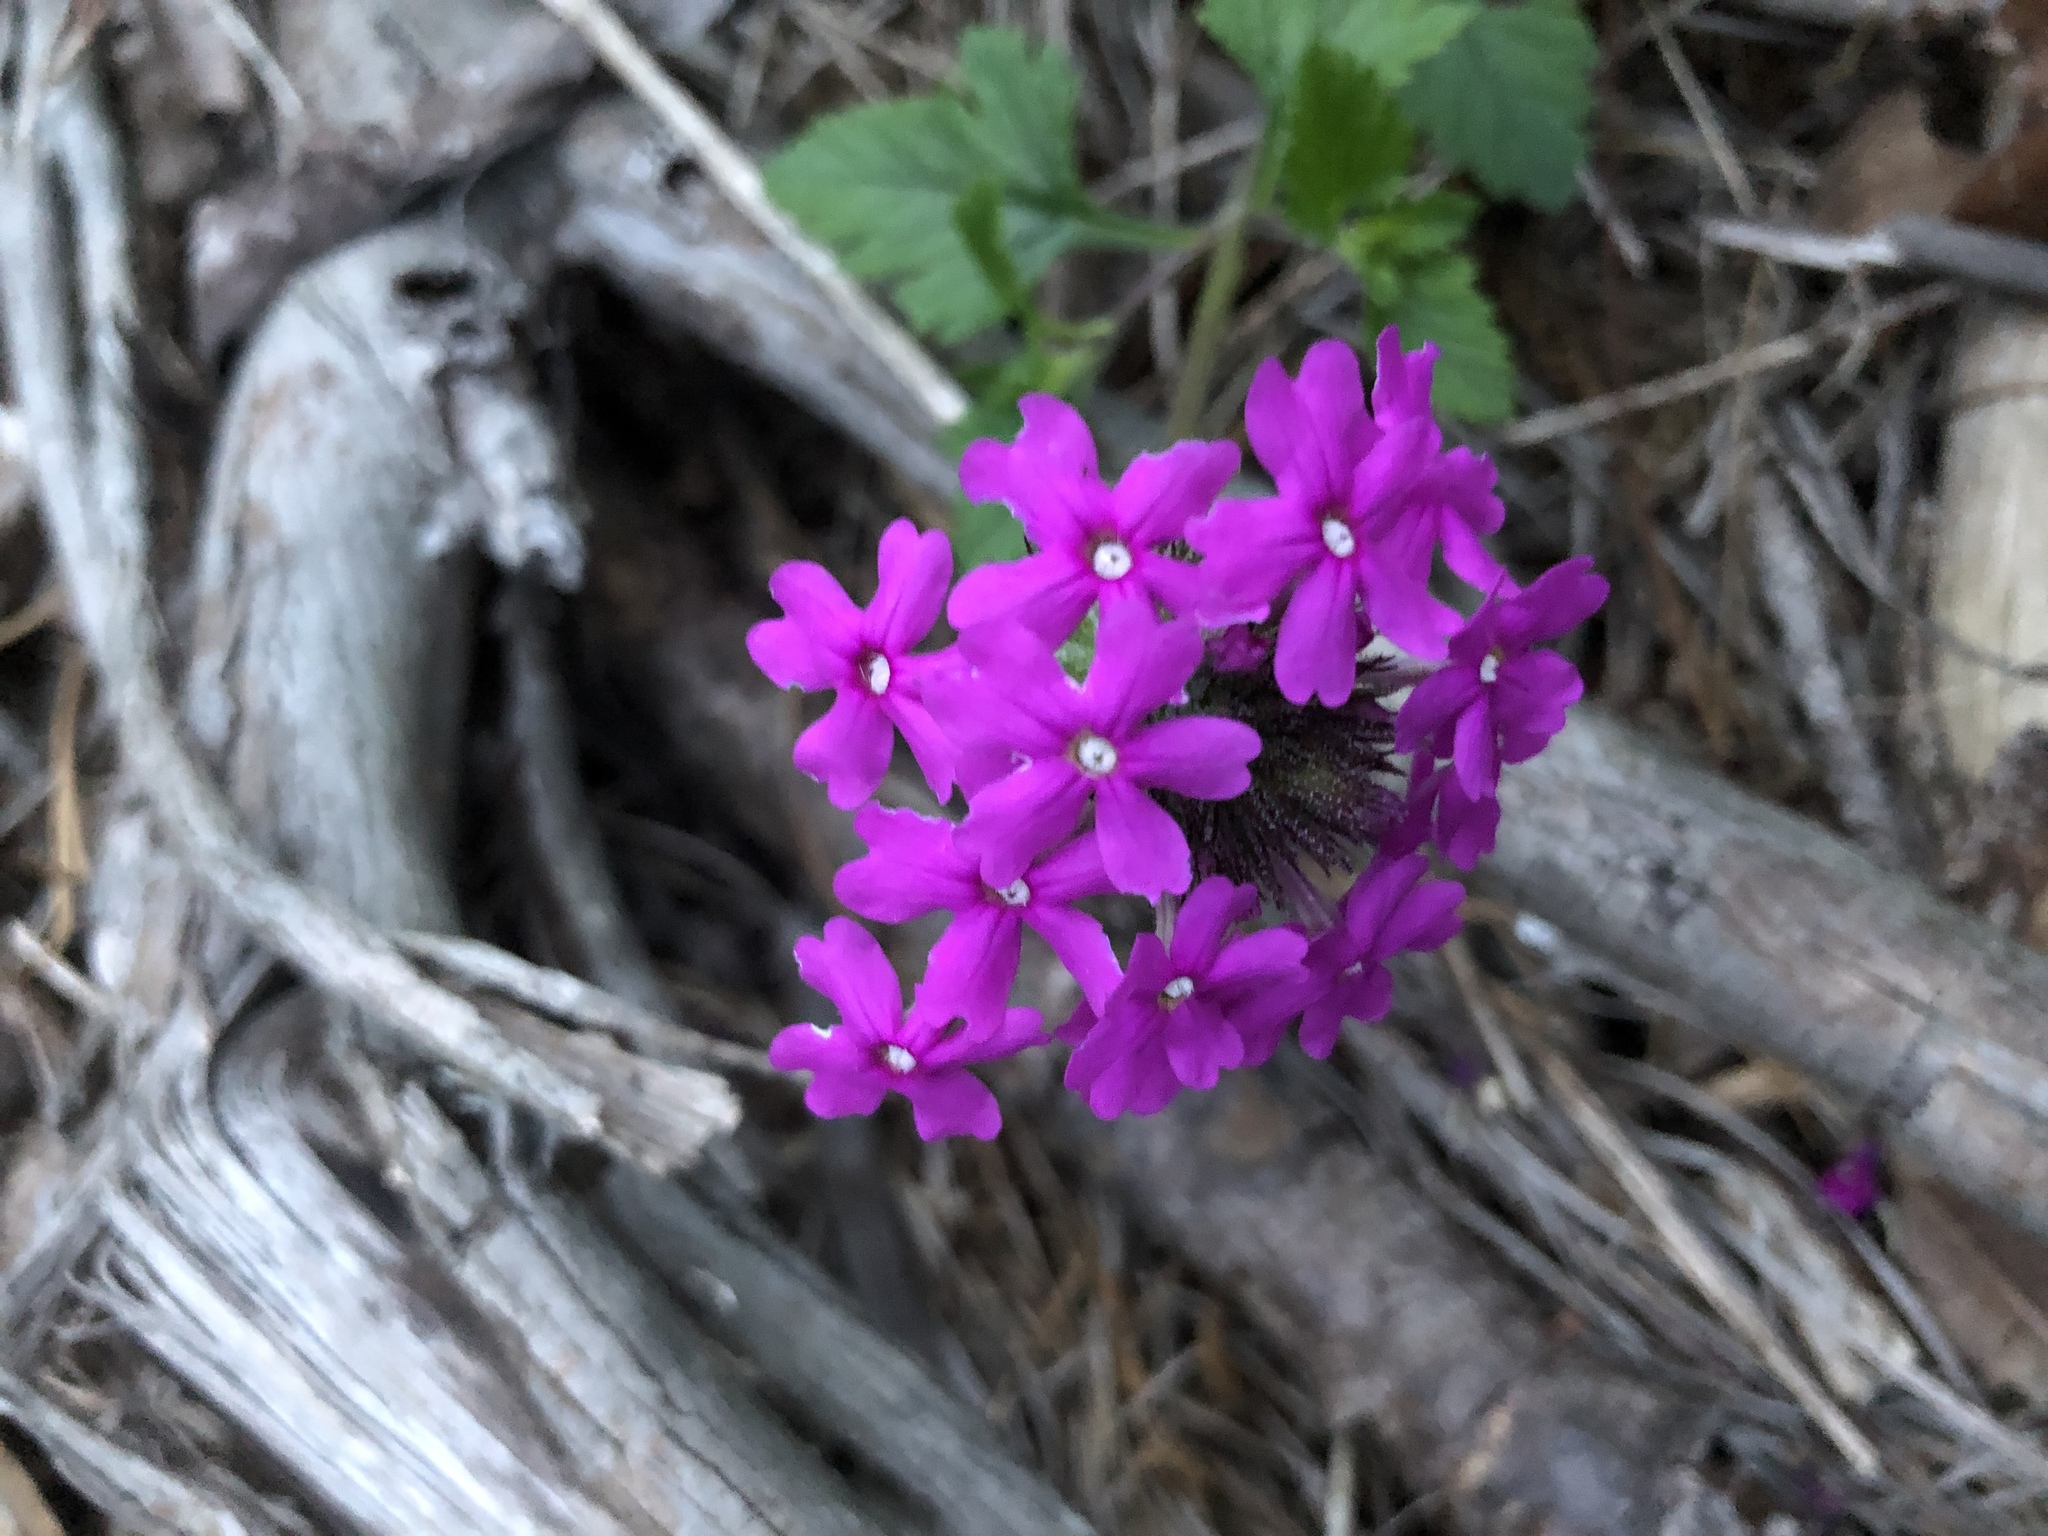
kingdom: Plantae
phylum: Tracheophyta
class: Magnoliopsida
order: Lamiales
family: Verbenaceae
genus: Verbena
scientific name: Verbena canadensis
